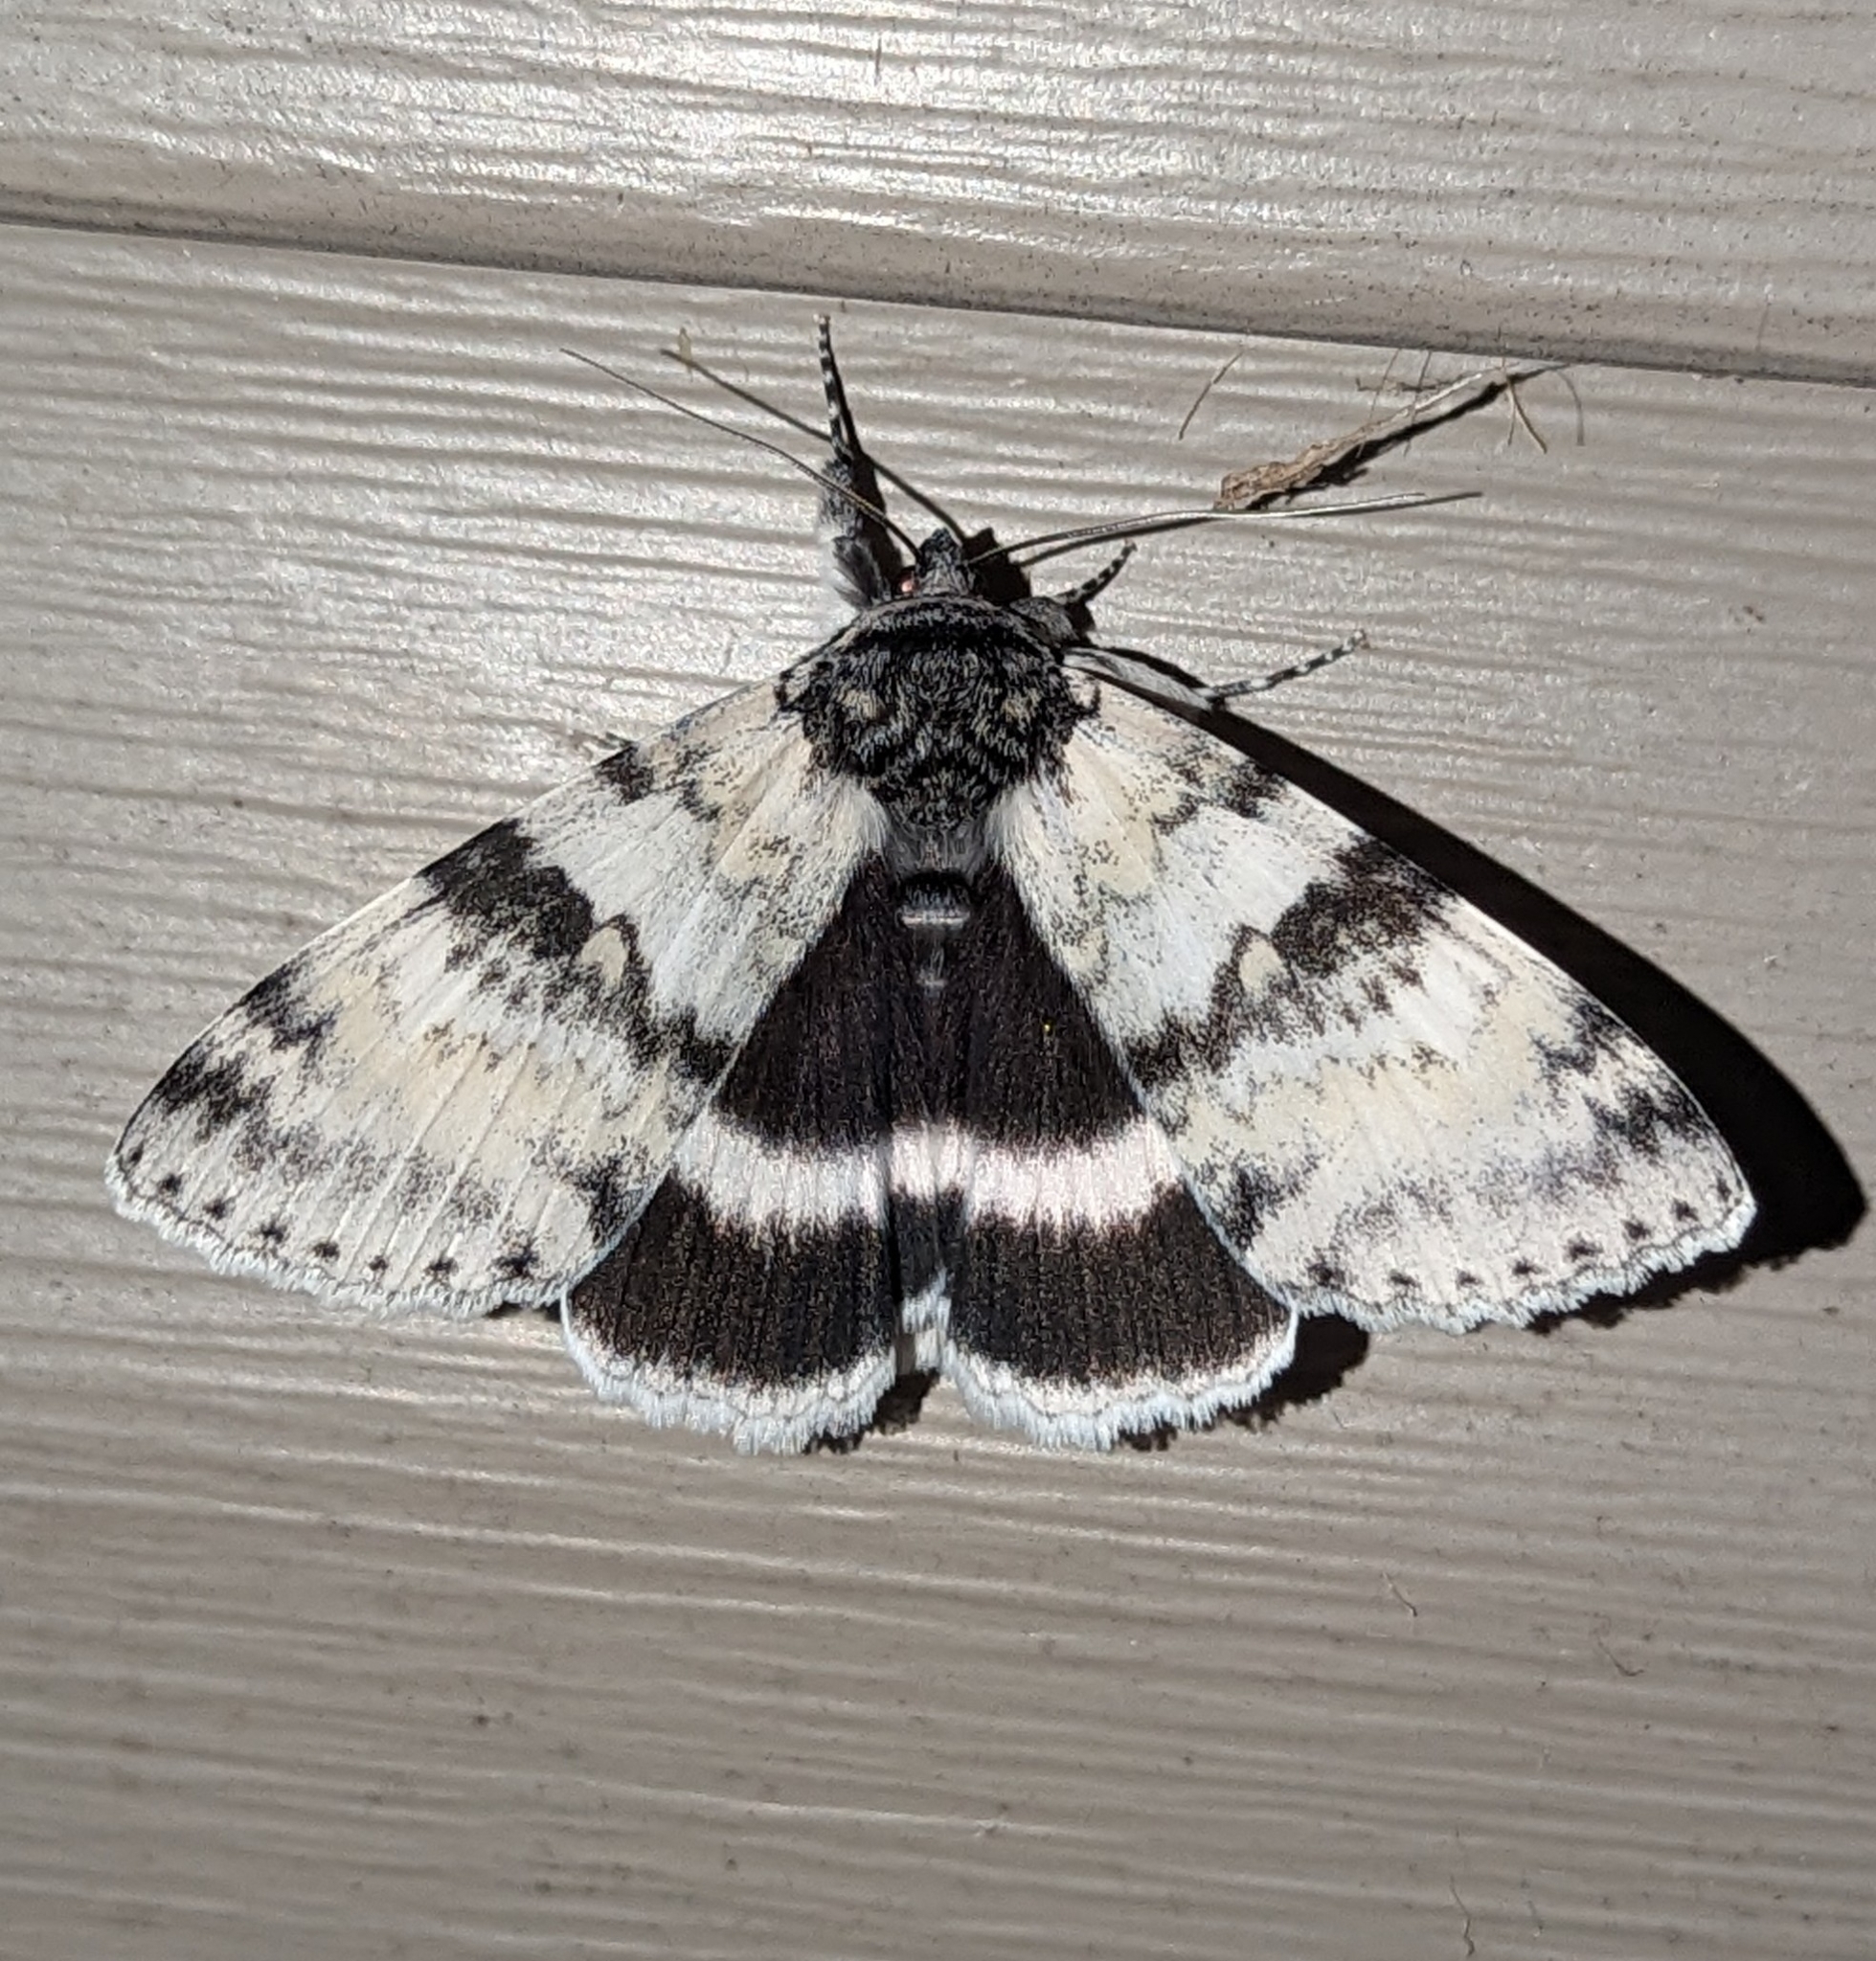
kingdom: Animalia
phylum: Arthropoda
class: Insecta
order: Lepidoptera
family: Erebidae
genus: Catocala
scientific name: Catocala relicta
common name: White underwing
